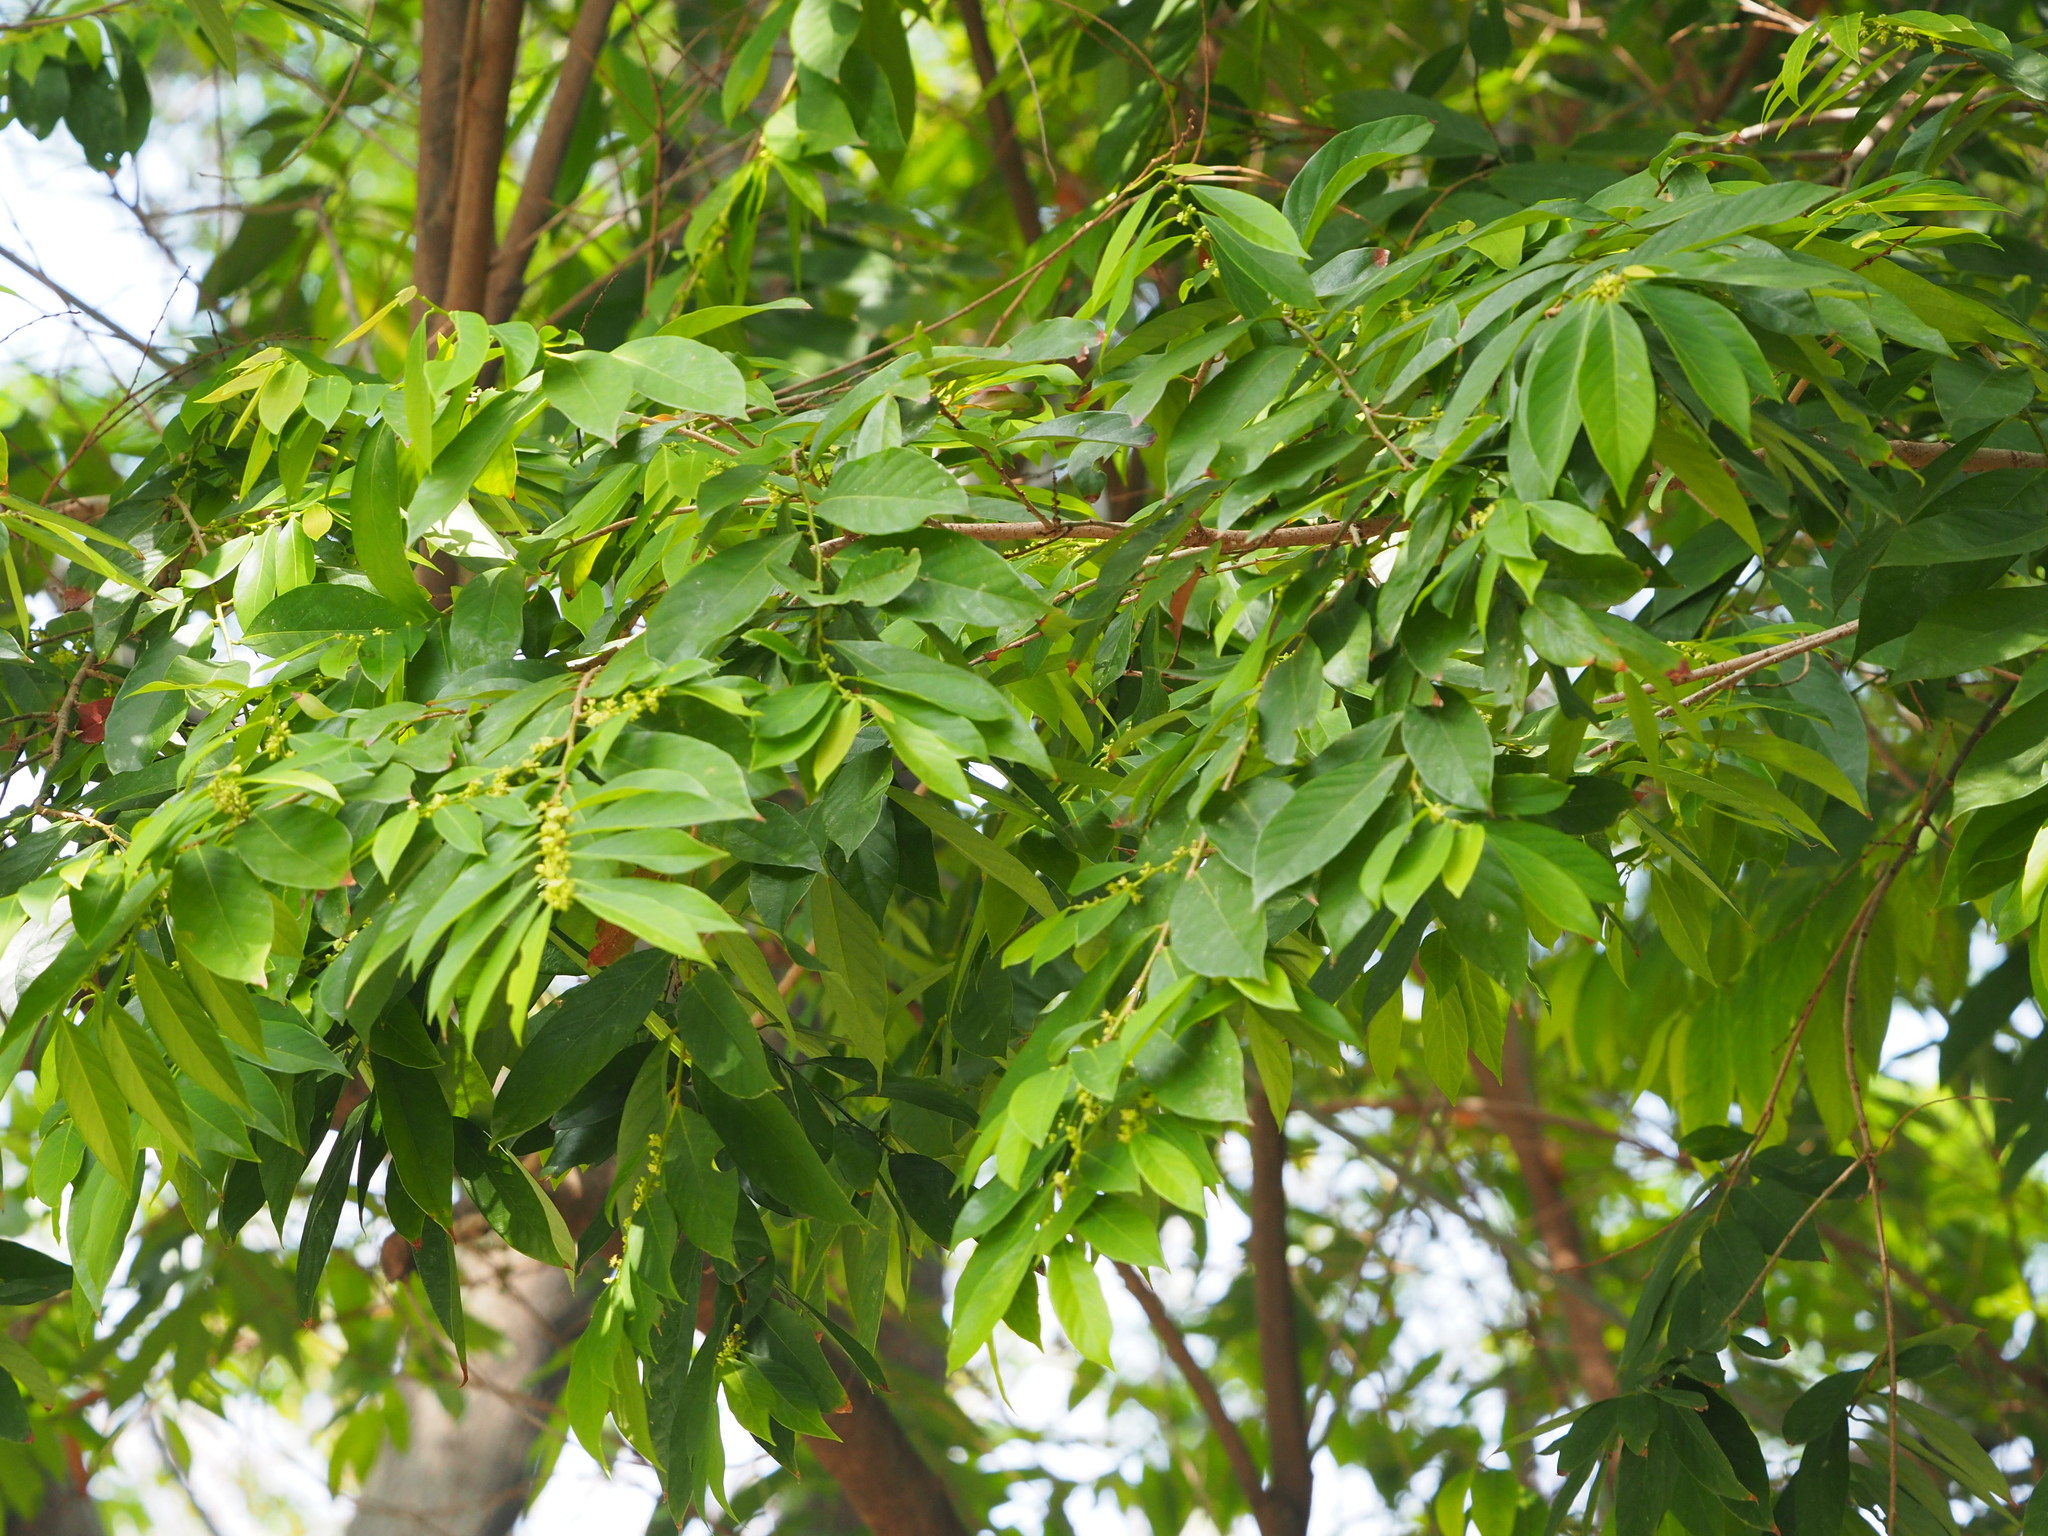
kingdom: Plantae
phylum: Tracheophyta
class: Magnoliopsida
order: Malpighiales
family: Phyllanthaceae
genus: Bridelia
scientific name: Bridelia tomentosa
